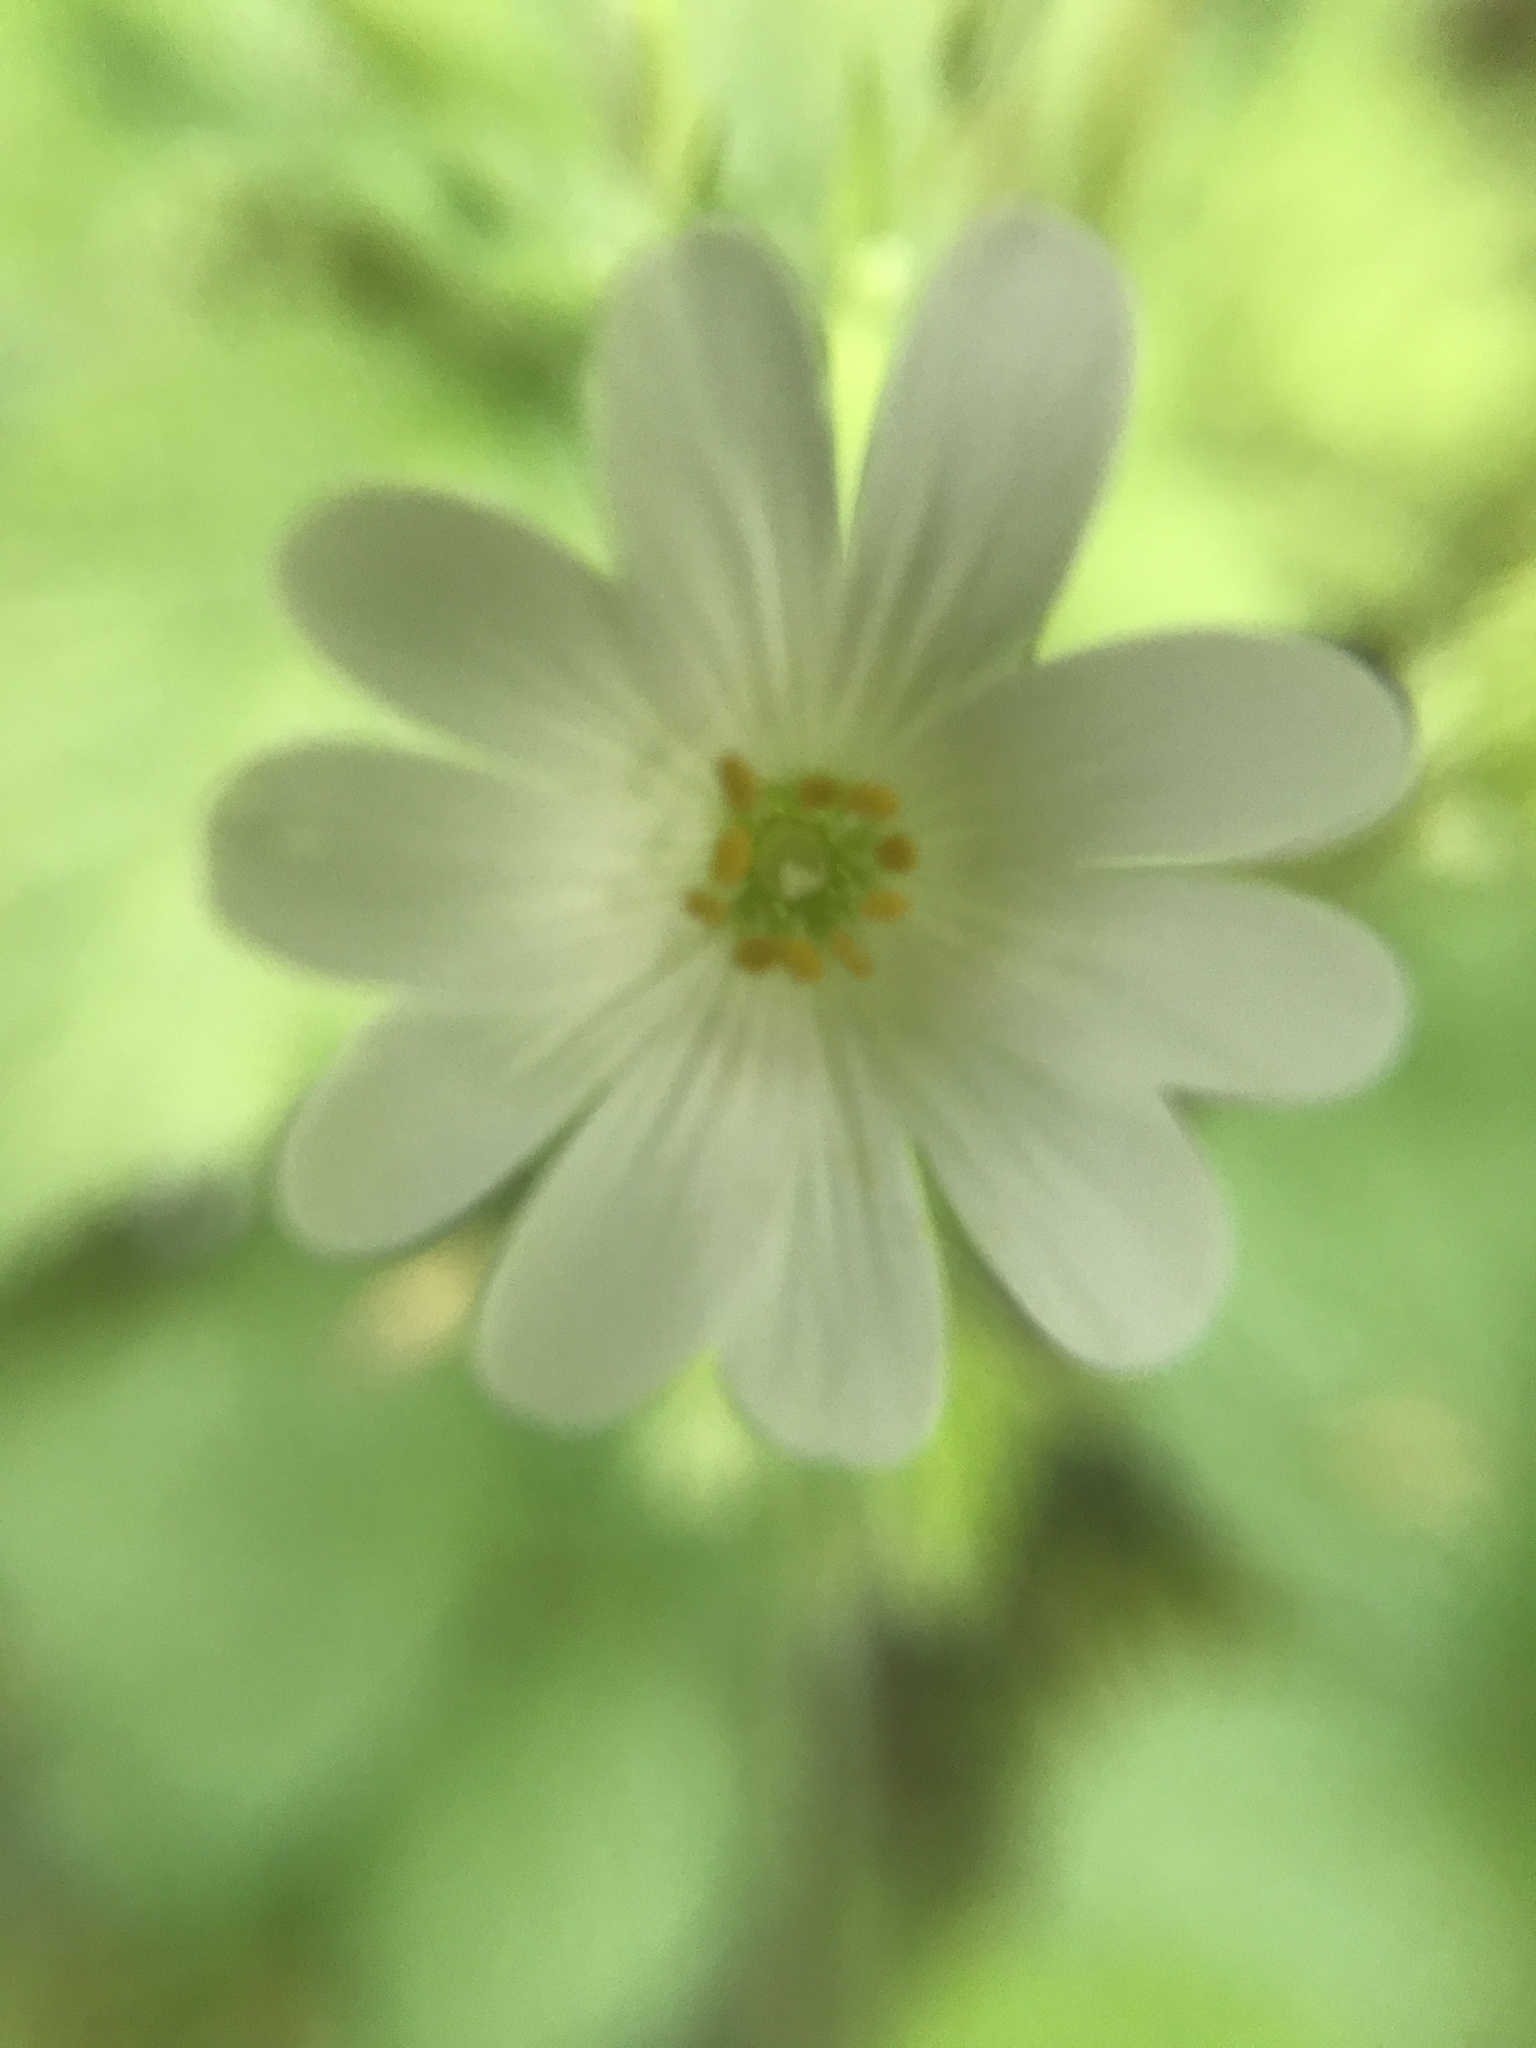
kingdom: Plantae
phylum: Tracheophyta
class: Magnoliopsida
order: Caryophyllales
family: Caryophyllaceae
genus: Rabelera
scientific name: Rabelera holostea
